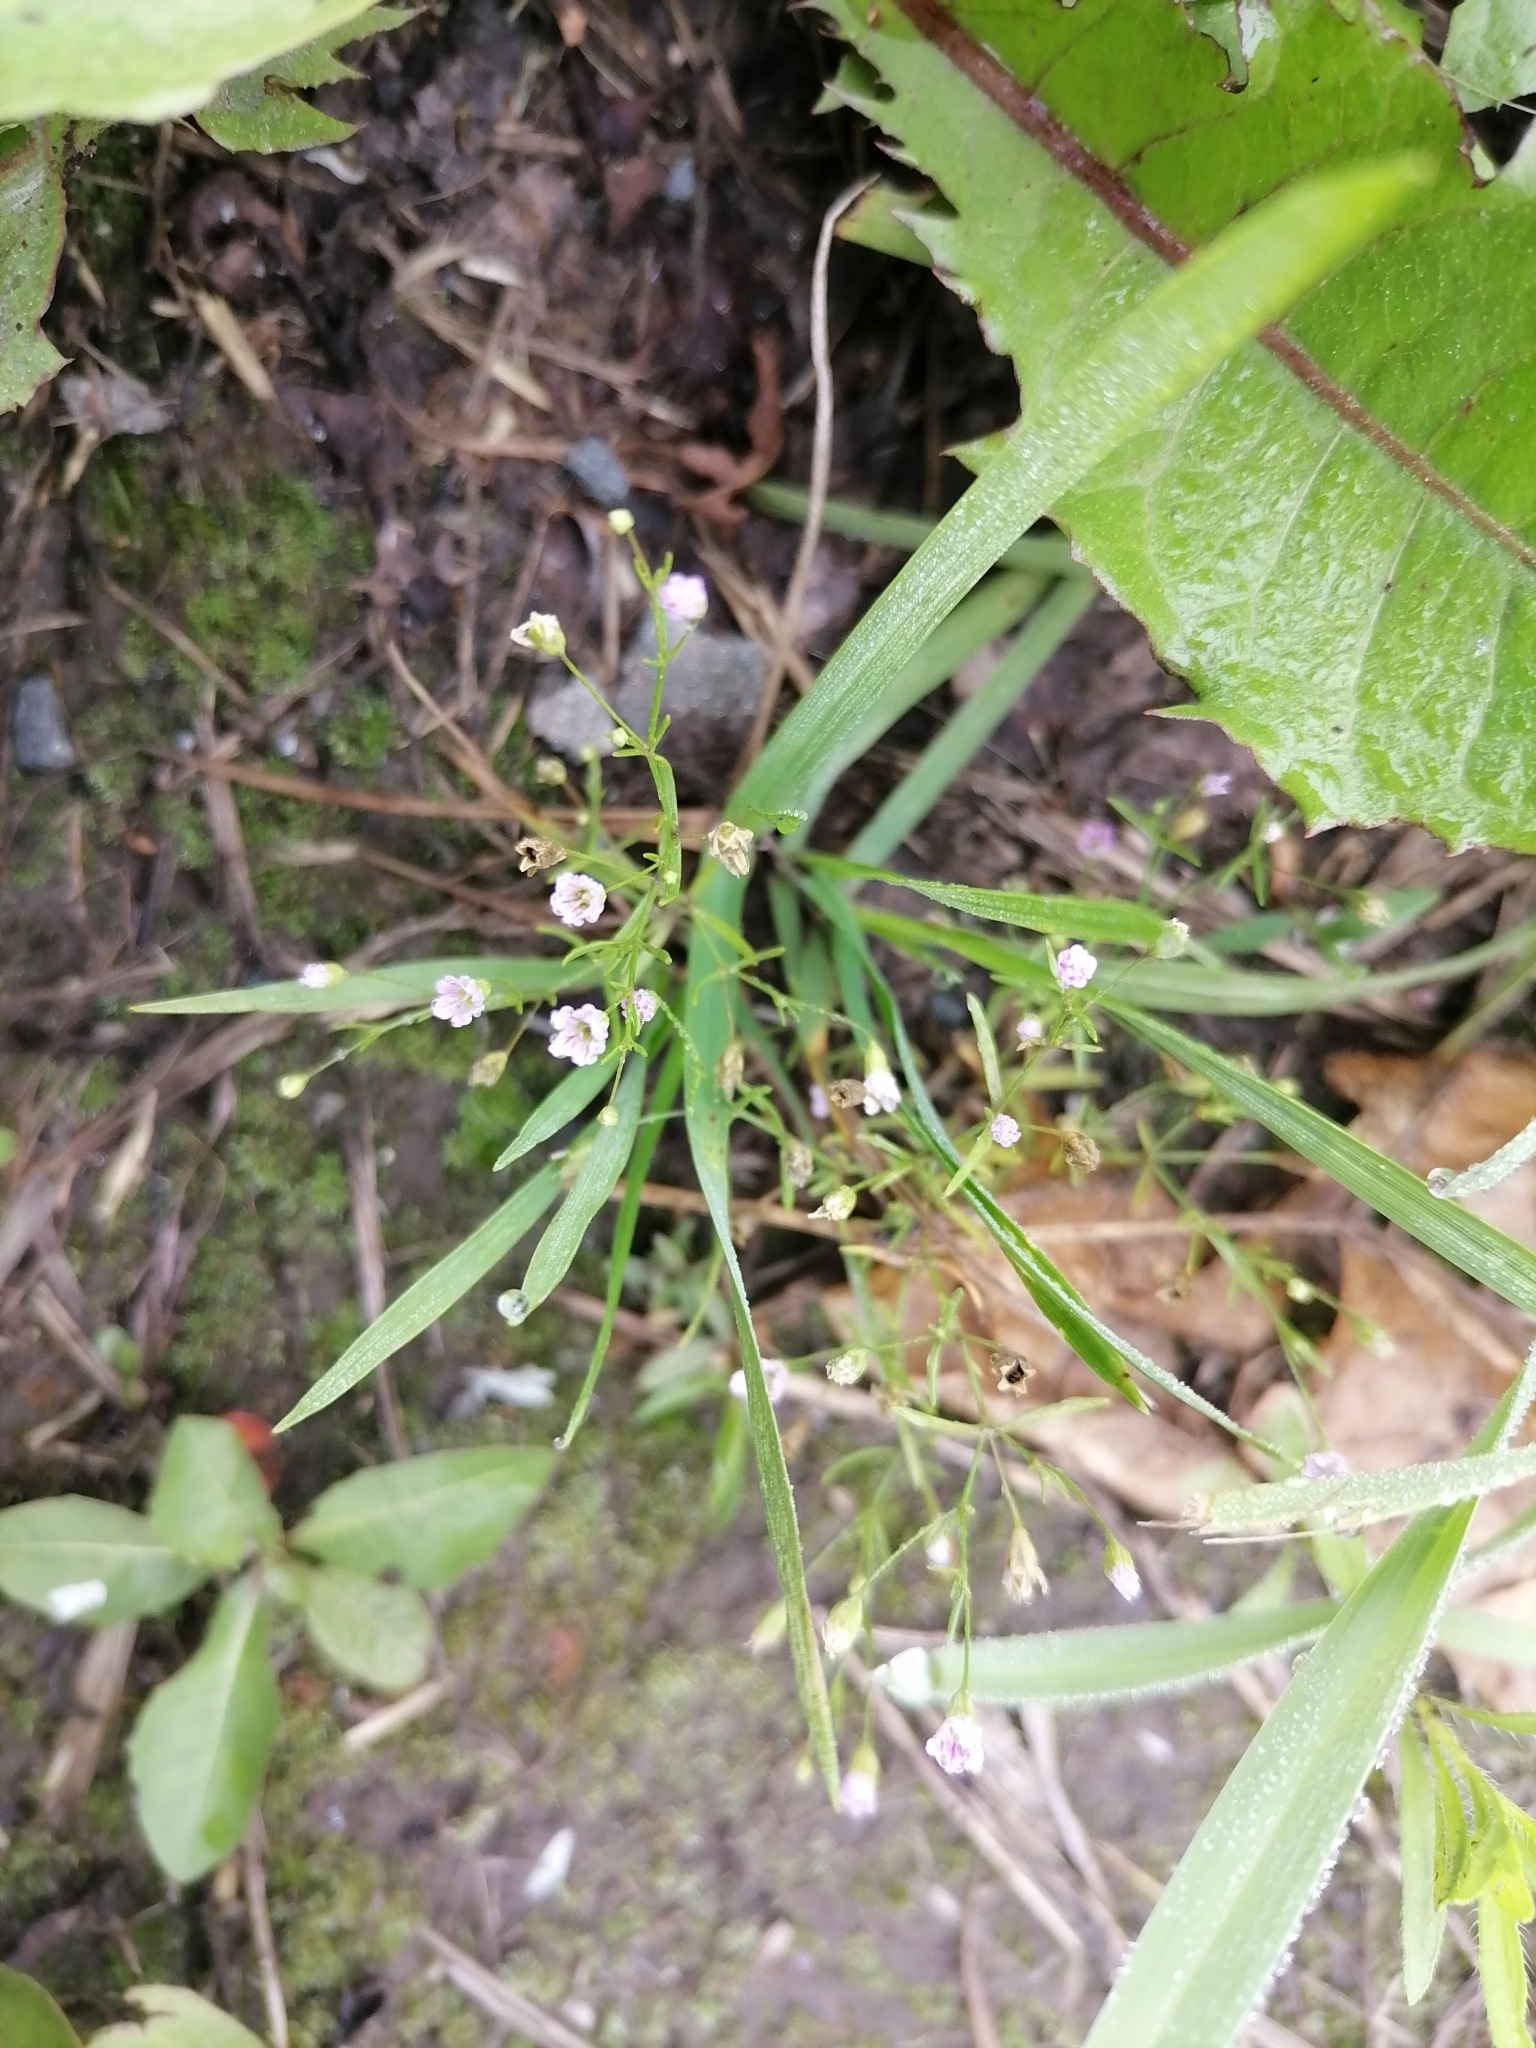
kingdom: Plantae
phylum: Tracheophyta
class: Magnoliopsida
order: Caryophyllales
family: Caryophyllaceae
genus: Psammophiliella
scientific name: Psammophiliella muralis
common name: Cushion baby's-breath
